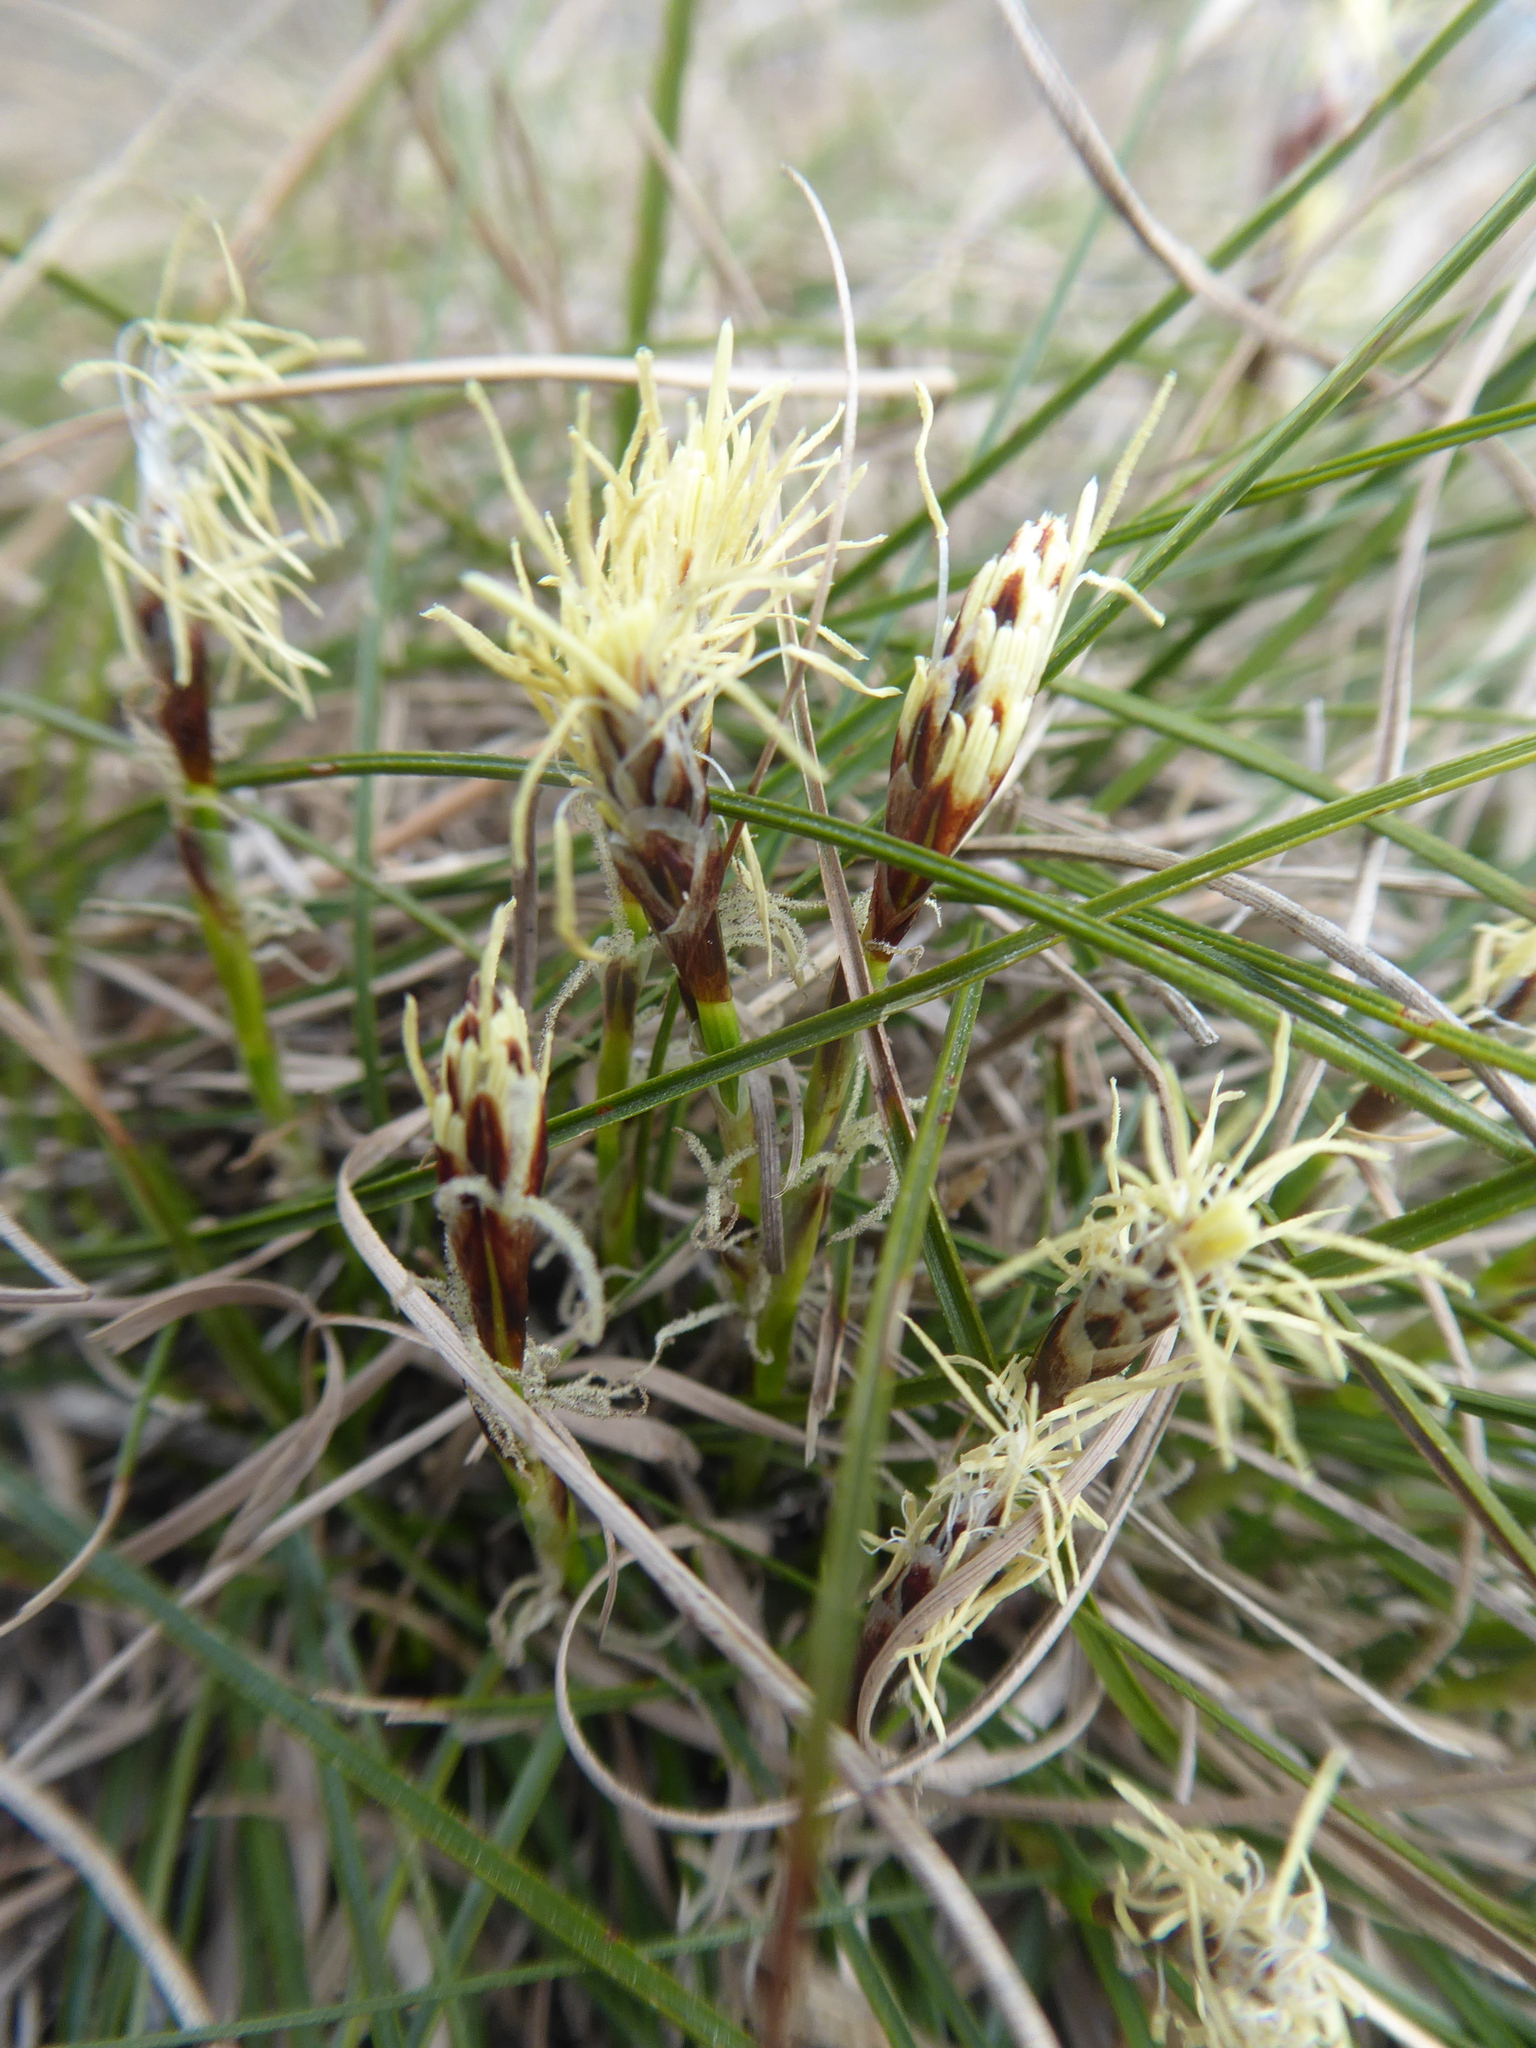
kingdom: Plantae
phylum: Tracheophyta
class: Liliopsida
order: Poales
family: Cyperaceae
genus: Carex
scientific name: Carex humilis
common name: Dwarf sedge
